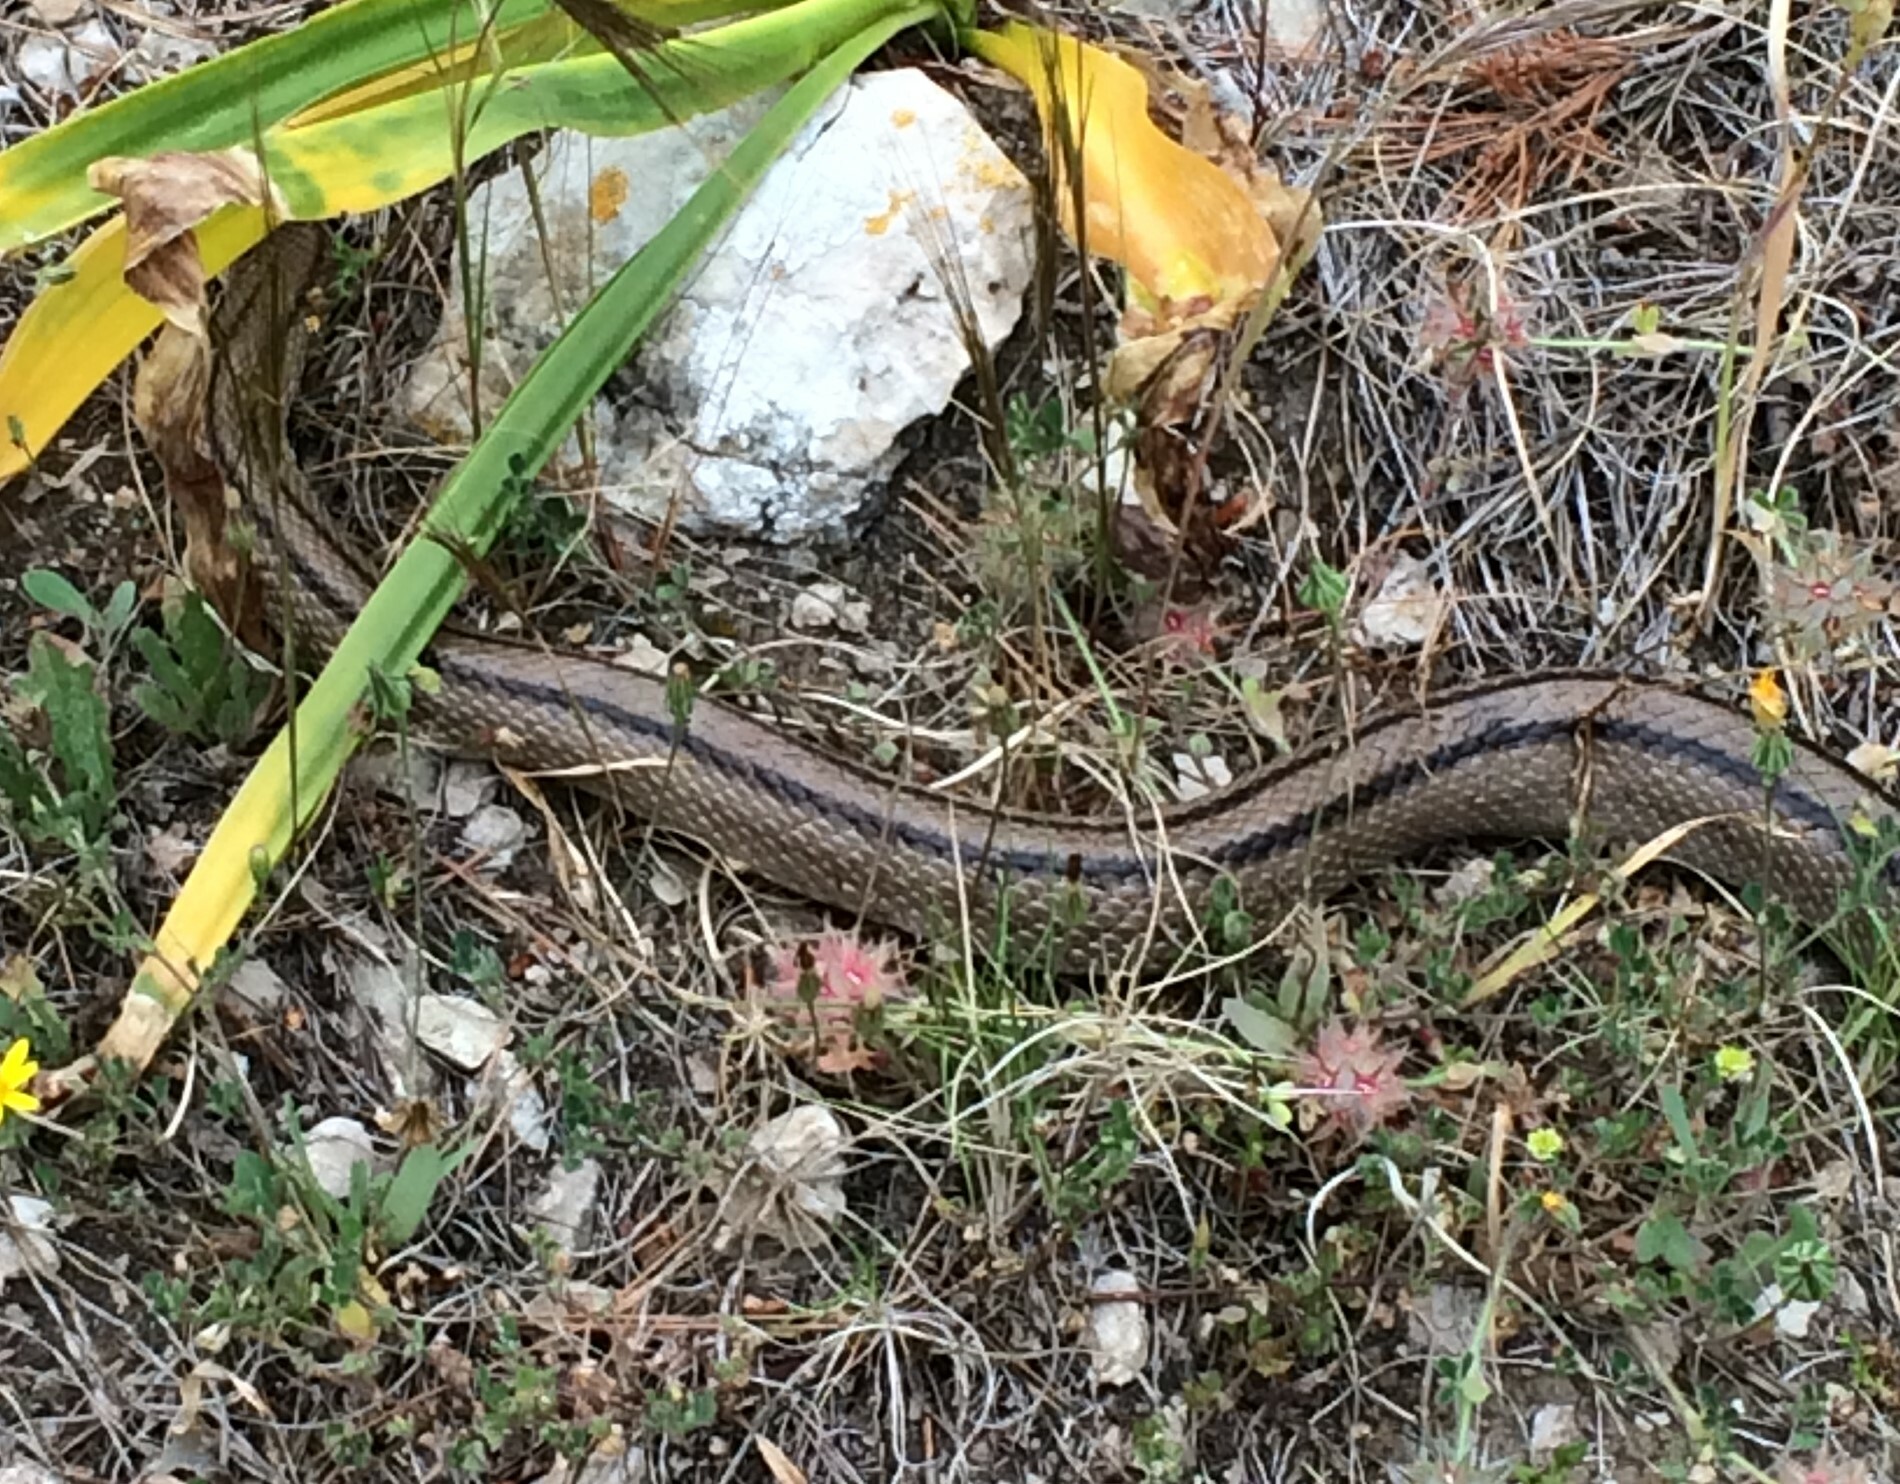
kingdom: Animalia
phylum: Chordata
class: Squamata
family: Colubridae
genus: Zamenis
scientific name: Zamenis scalaris
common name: Ladder snakes
